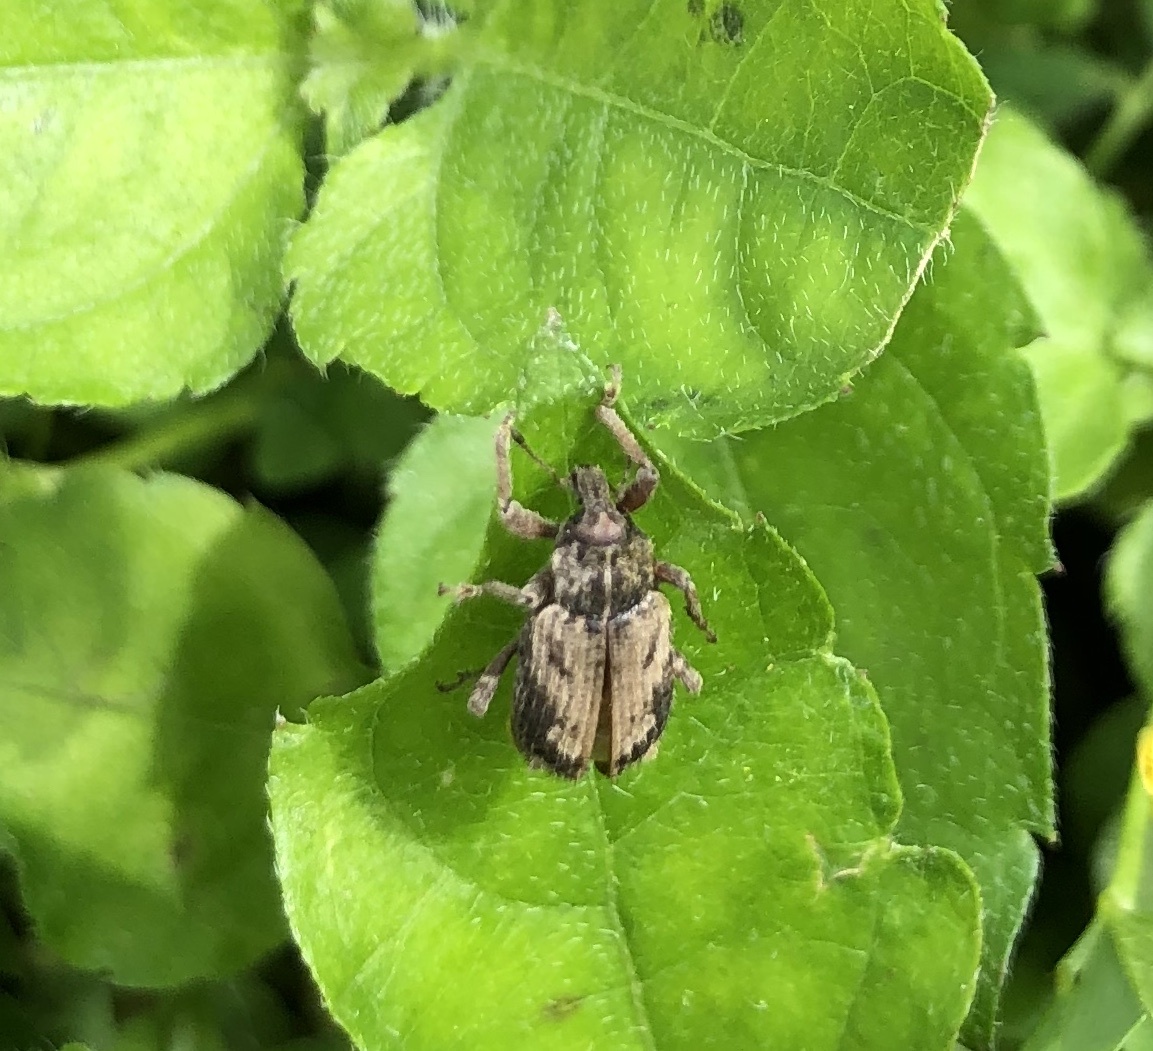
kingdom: Animalia
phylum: Arthropoda
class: Insecta
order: Coleoptera
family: Curculionidae
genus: Listroderes
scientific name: Listroderes difficilis
